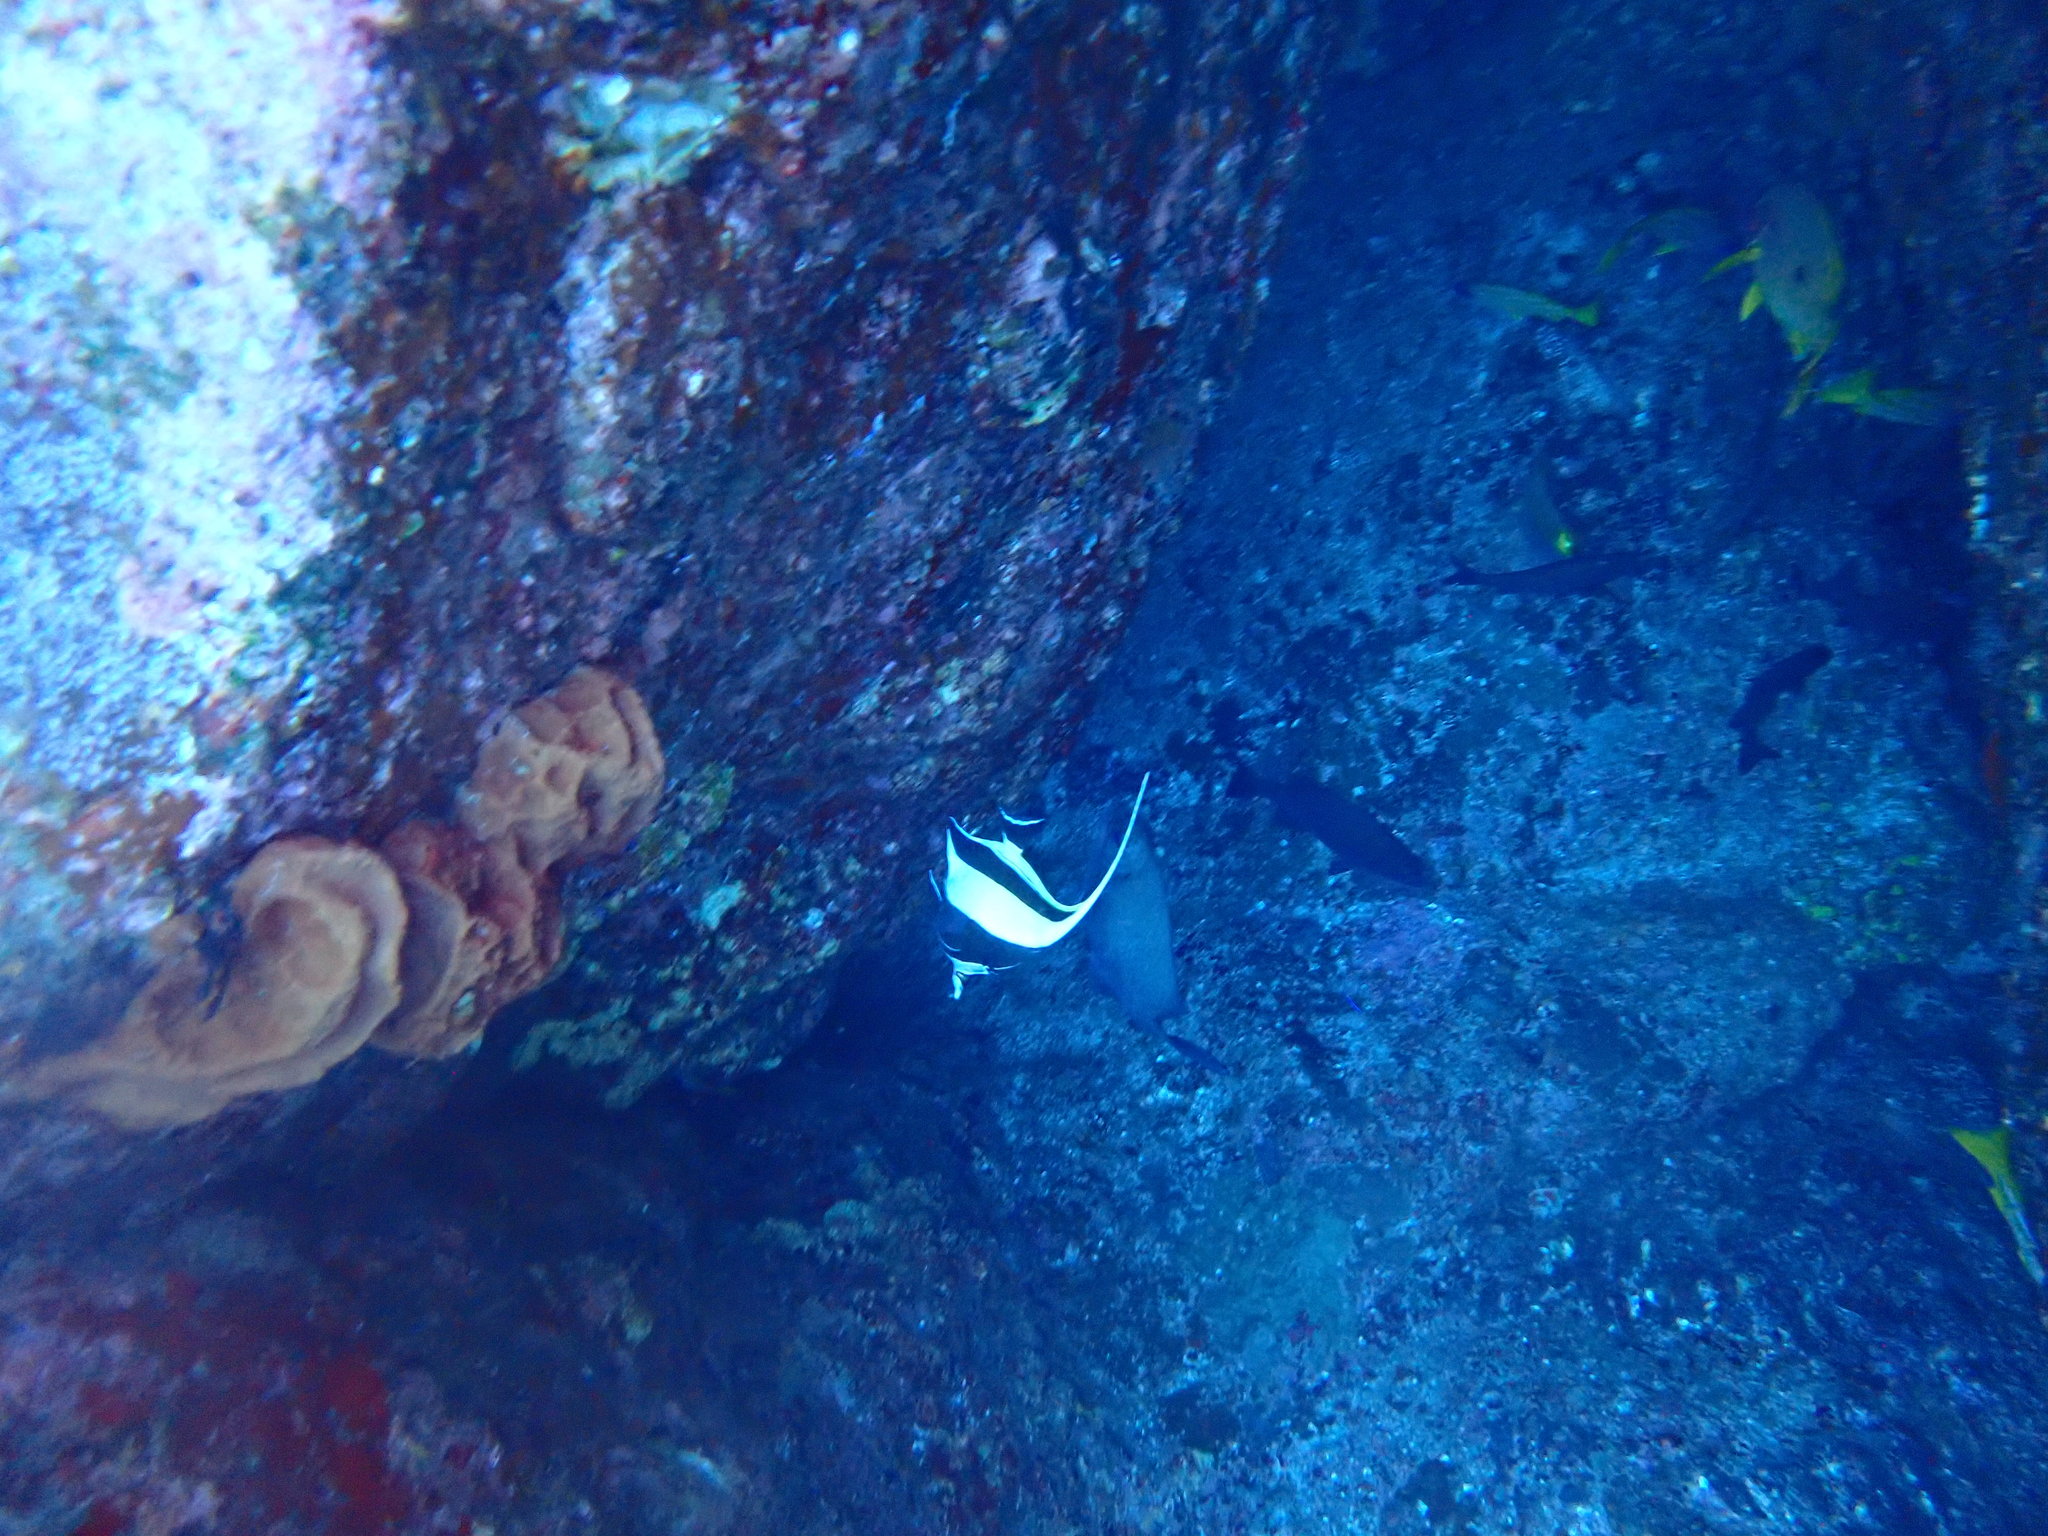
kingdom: Animalia
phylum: Chordata
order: Perciformes
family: Zanclidae
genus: Zanclus
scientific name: Zanclus cornutus
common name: Moorish idol
